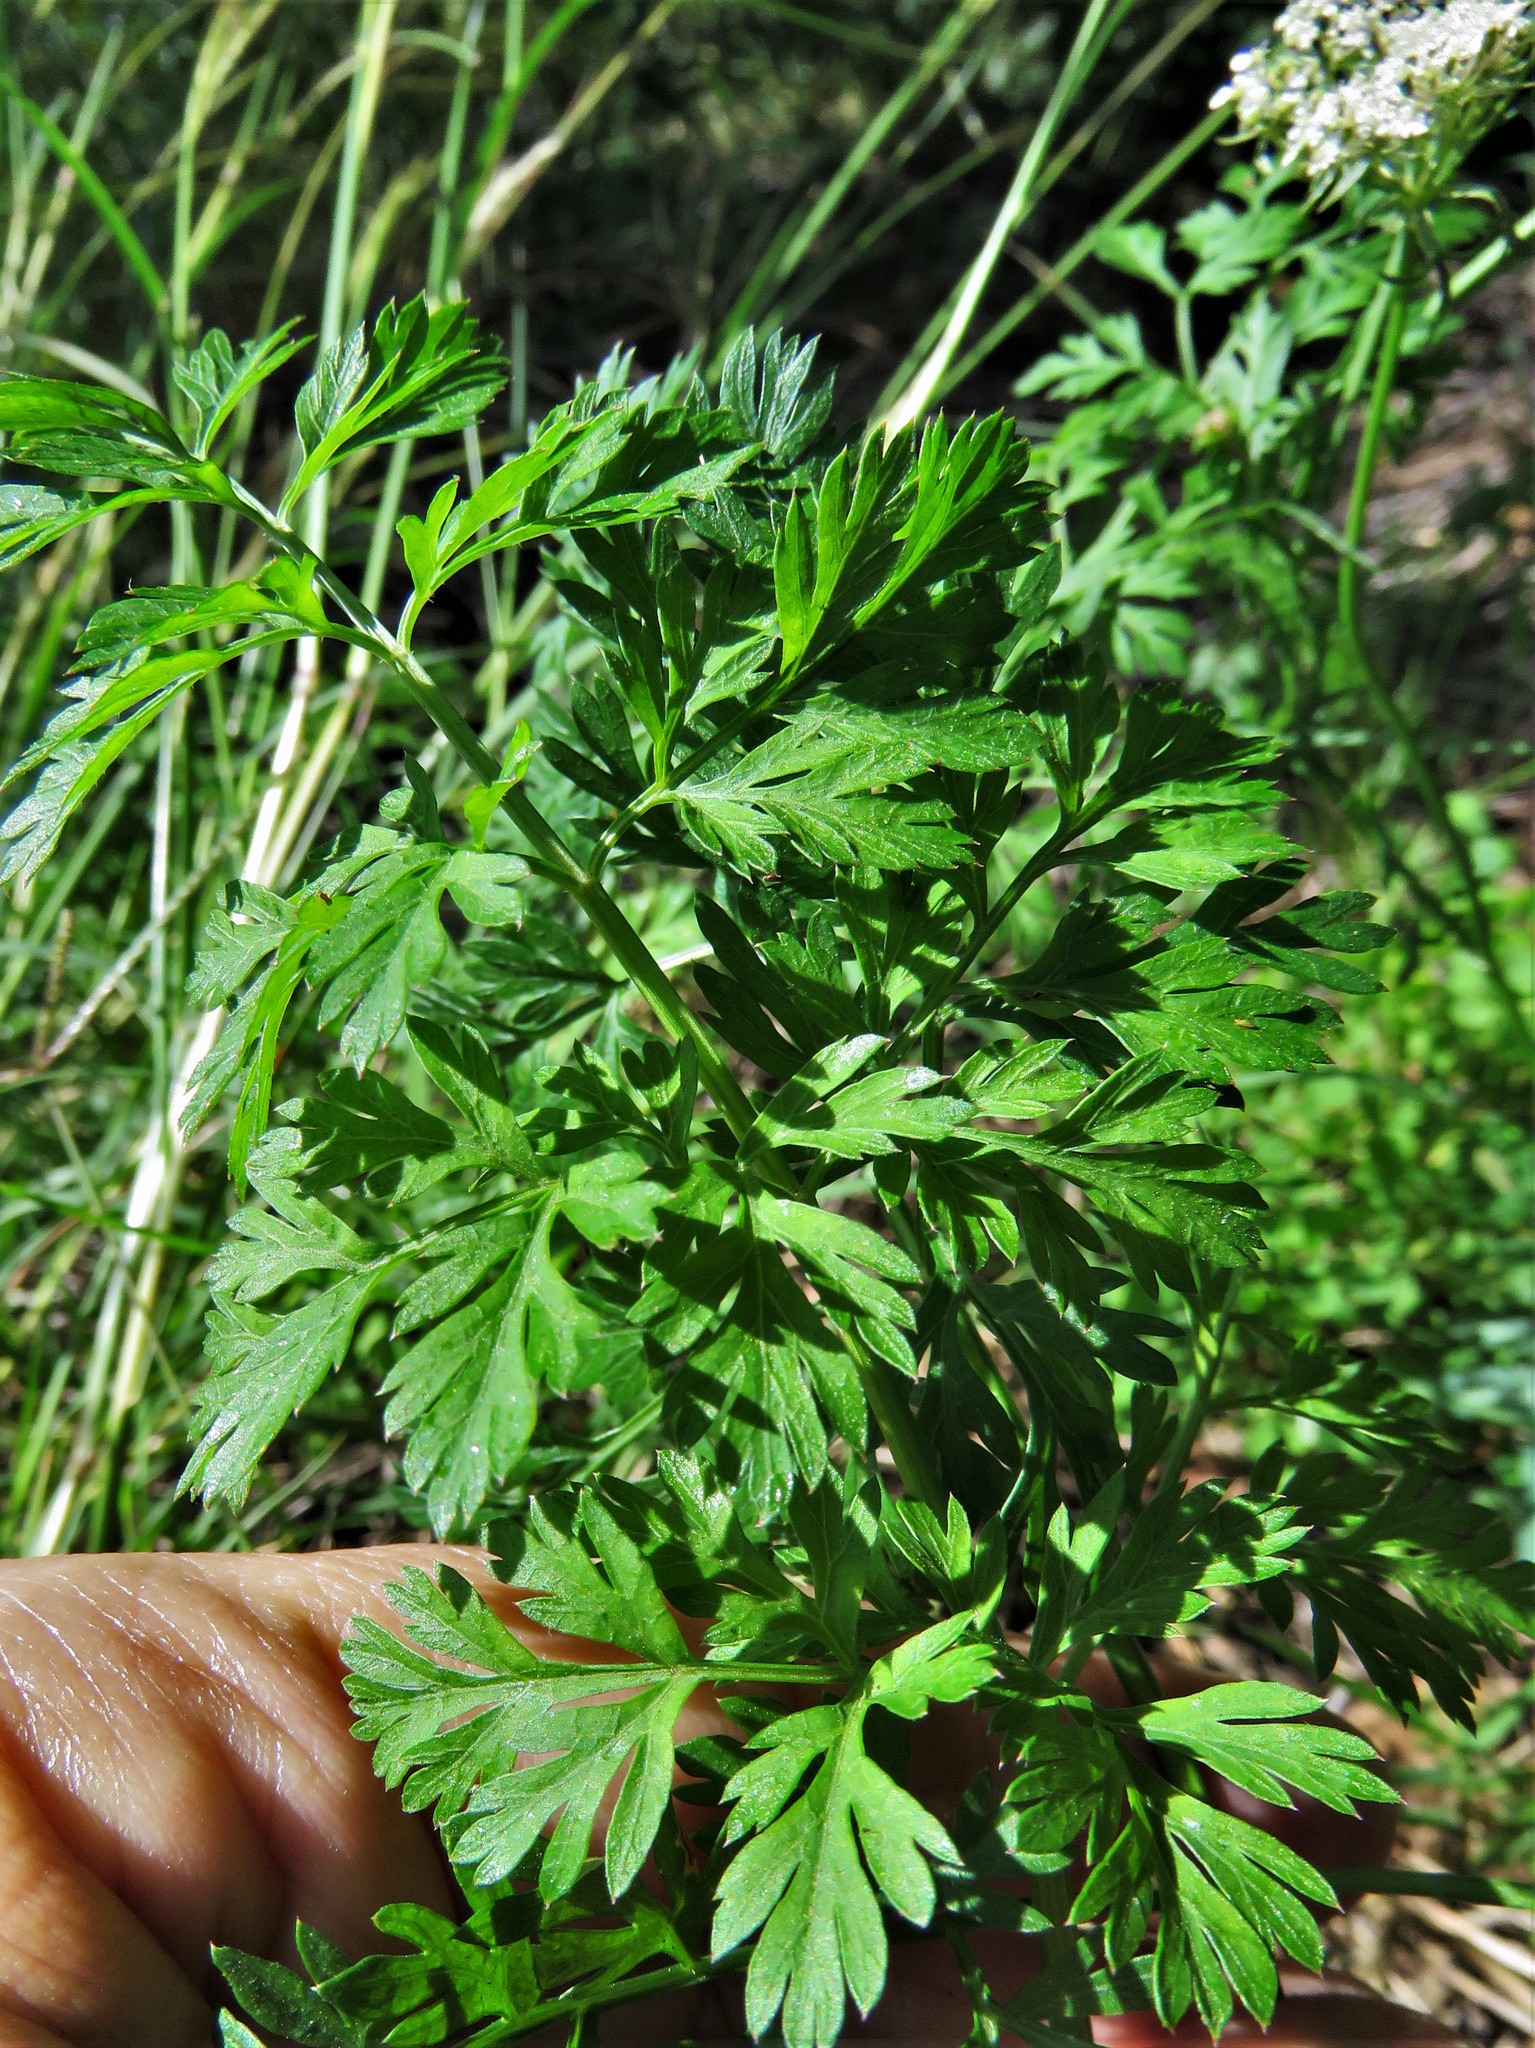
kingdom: Plantae
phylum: Tracheophyta
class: Magnoliopsida
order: Apiales
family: Apiaceae
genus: Daucus
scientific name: Daucus carota
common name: Wild carrot
